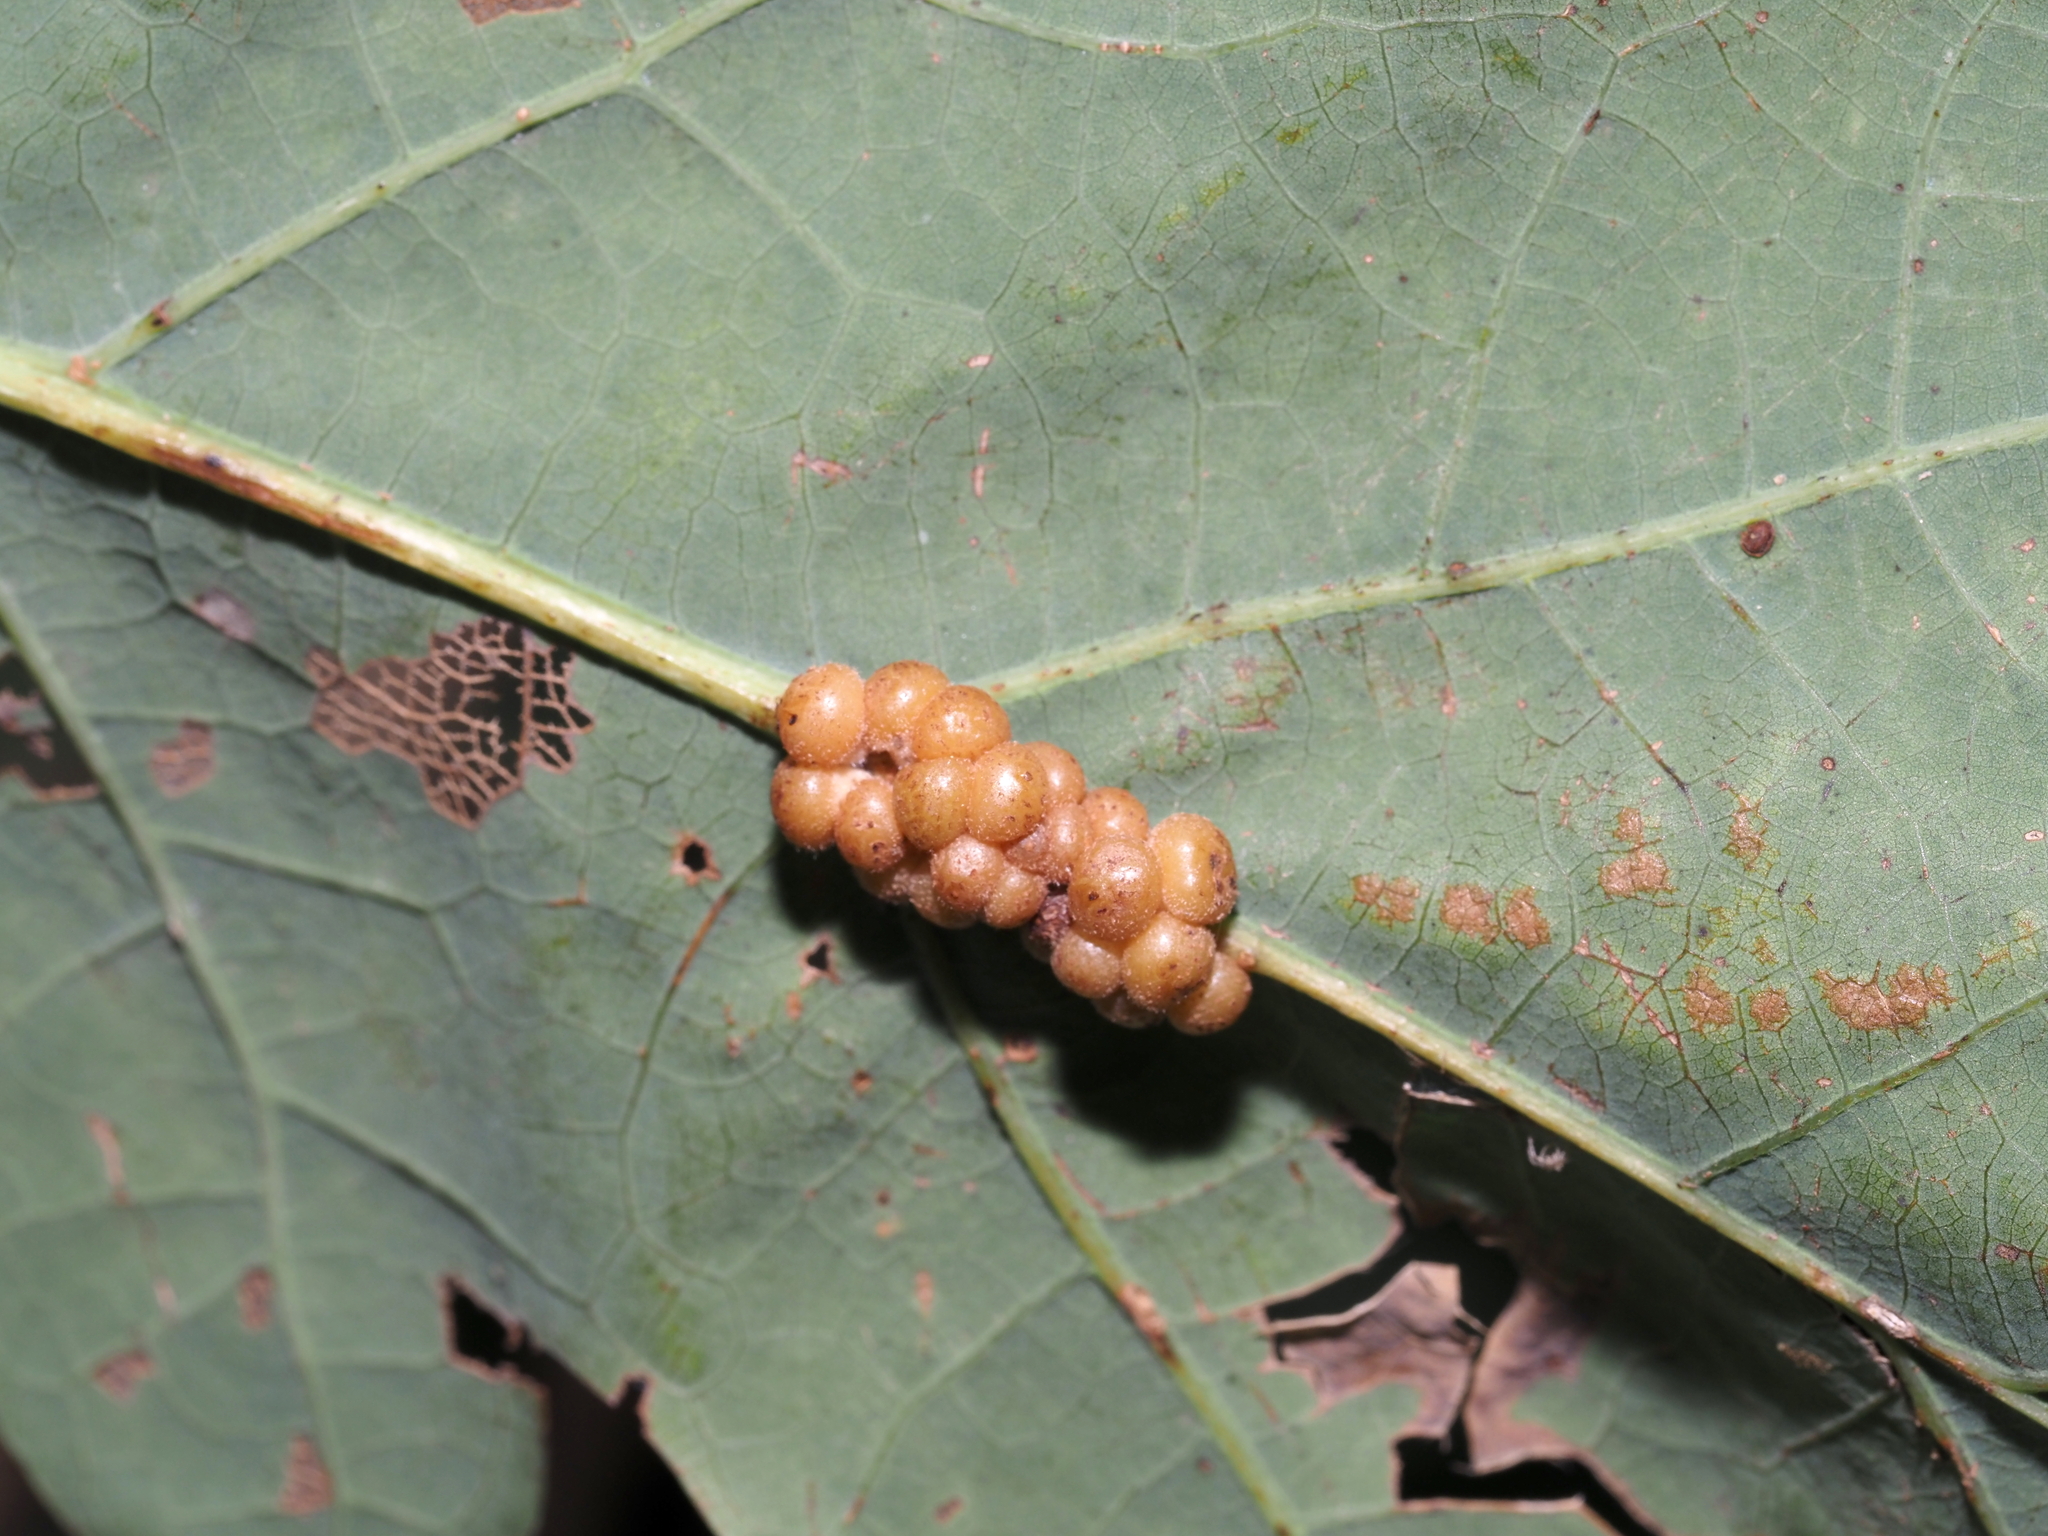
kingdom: Animalia
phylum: Arthropoda
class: Insecta
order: Hymenoptera
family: Cynipidae
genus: Andricus
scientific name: Andricus
